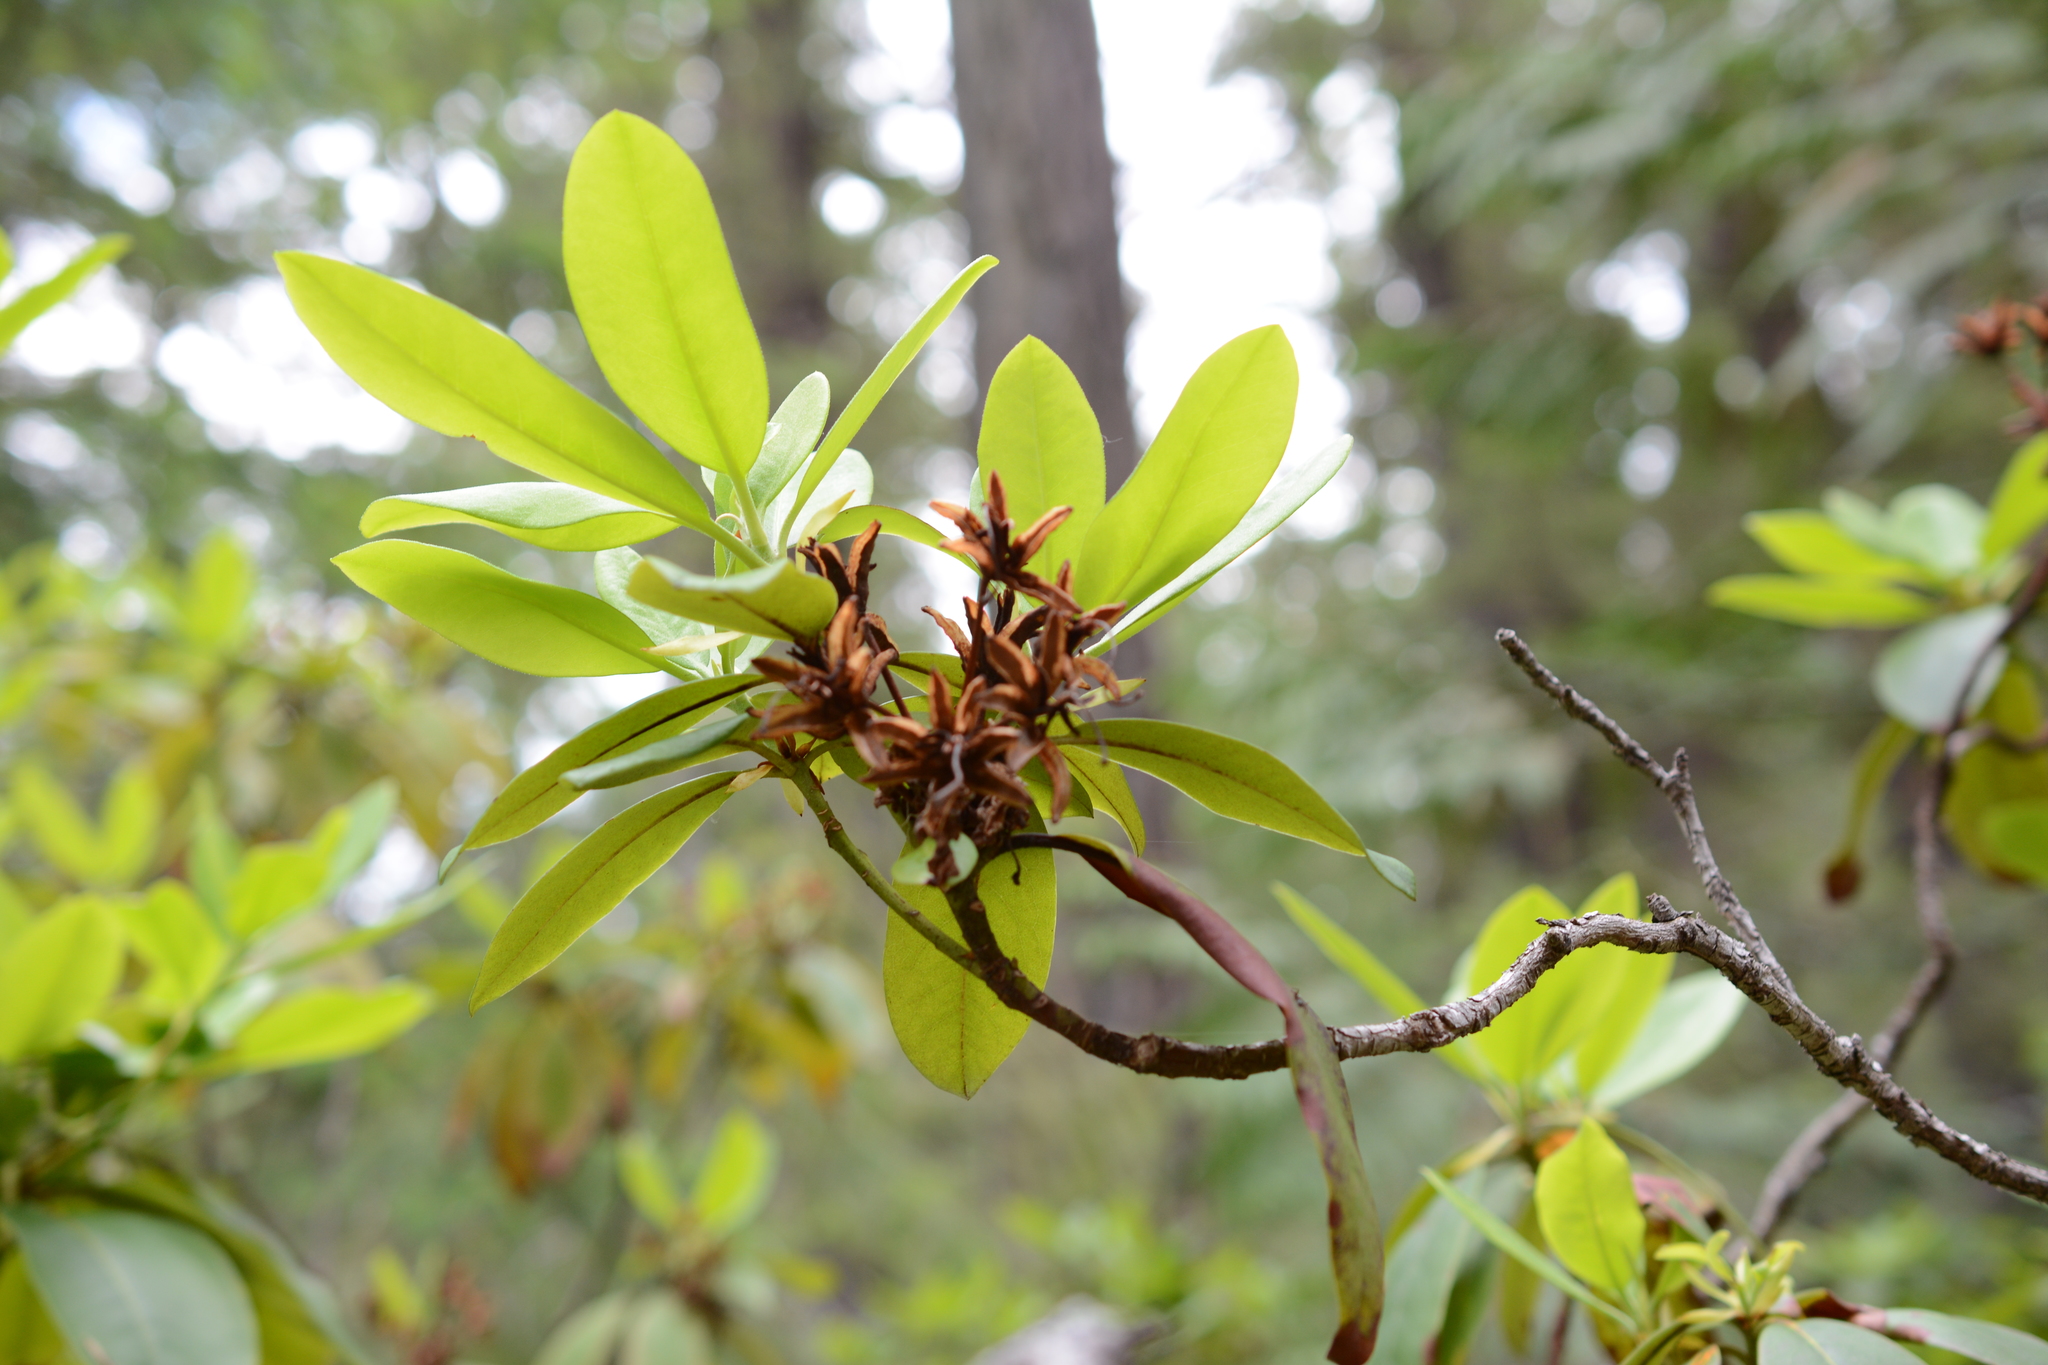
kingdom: Plantae
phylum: Tracheophyta
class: Magnoliopsida
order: Ericales
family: Ericaceae
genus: Rhododendron
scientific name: Rhododendron macrophyllum
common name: California rose bay
